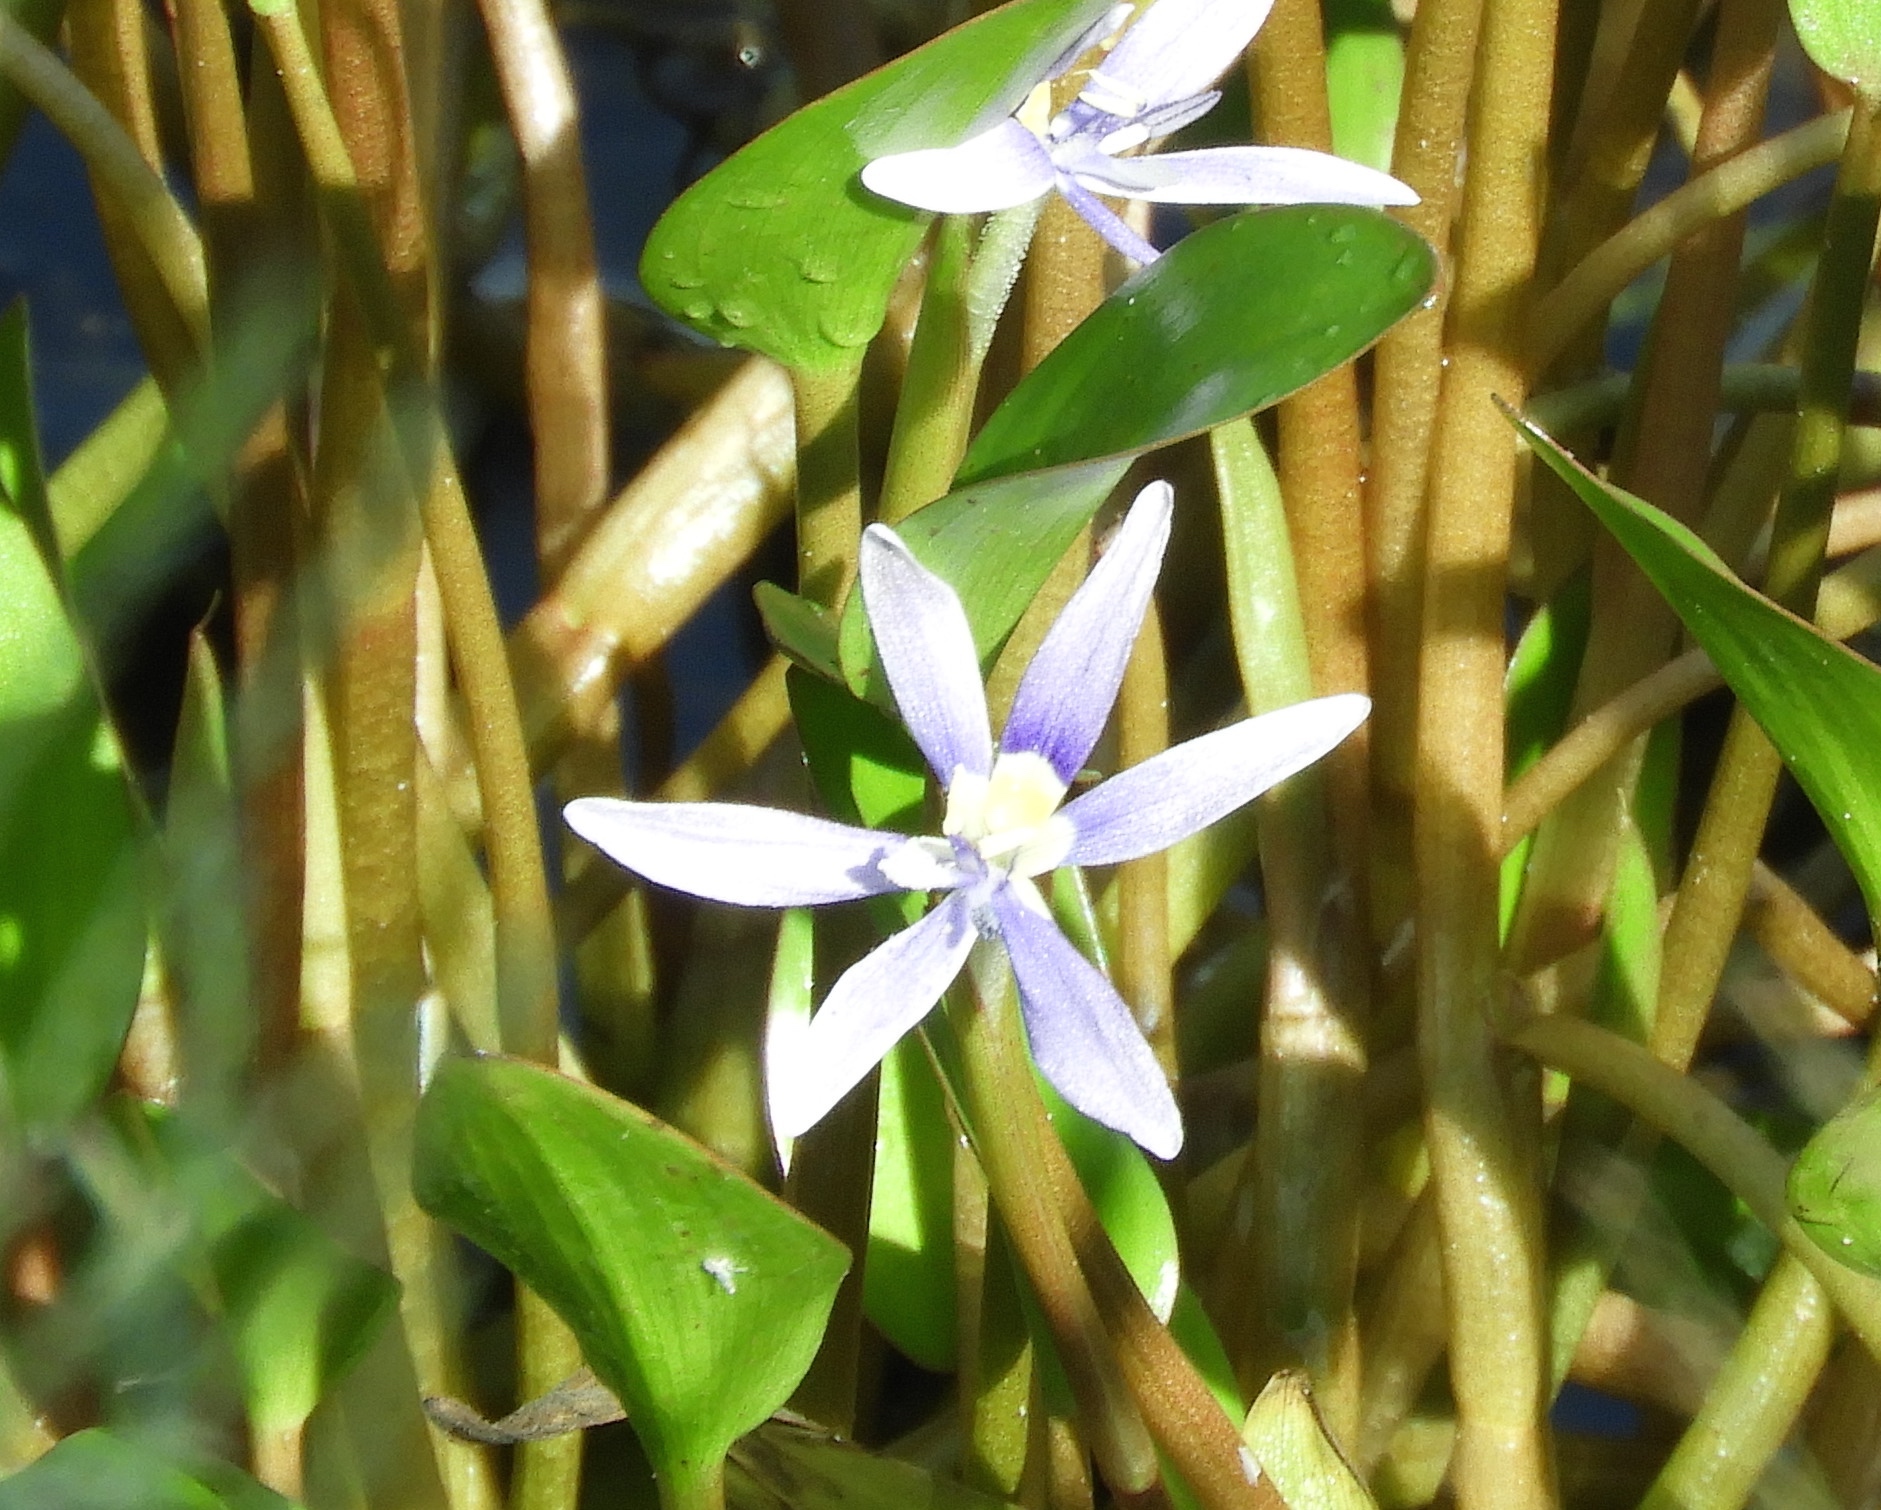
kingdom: Plantae
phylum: Tracheophyta
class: Liliopsida
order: Commelinales
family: Pontederiaceae
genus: Heteranthera
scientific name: Heteranthera limosa
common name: Blue mud-plantain
